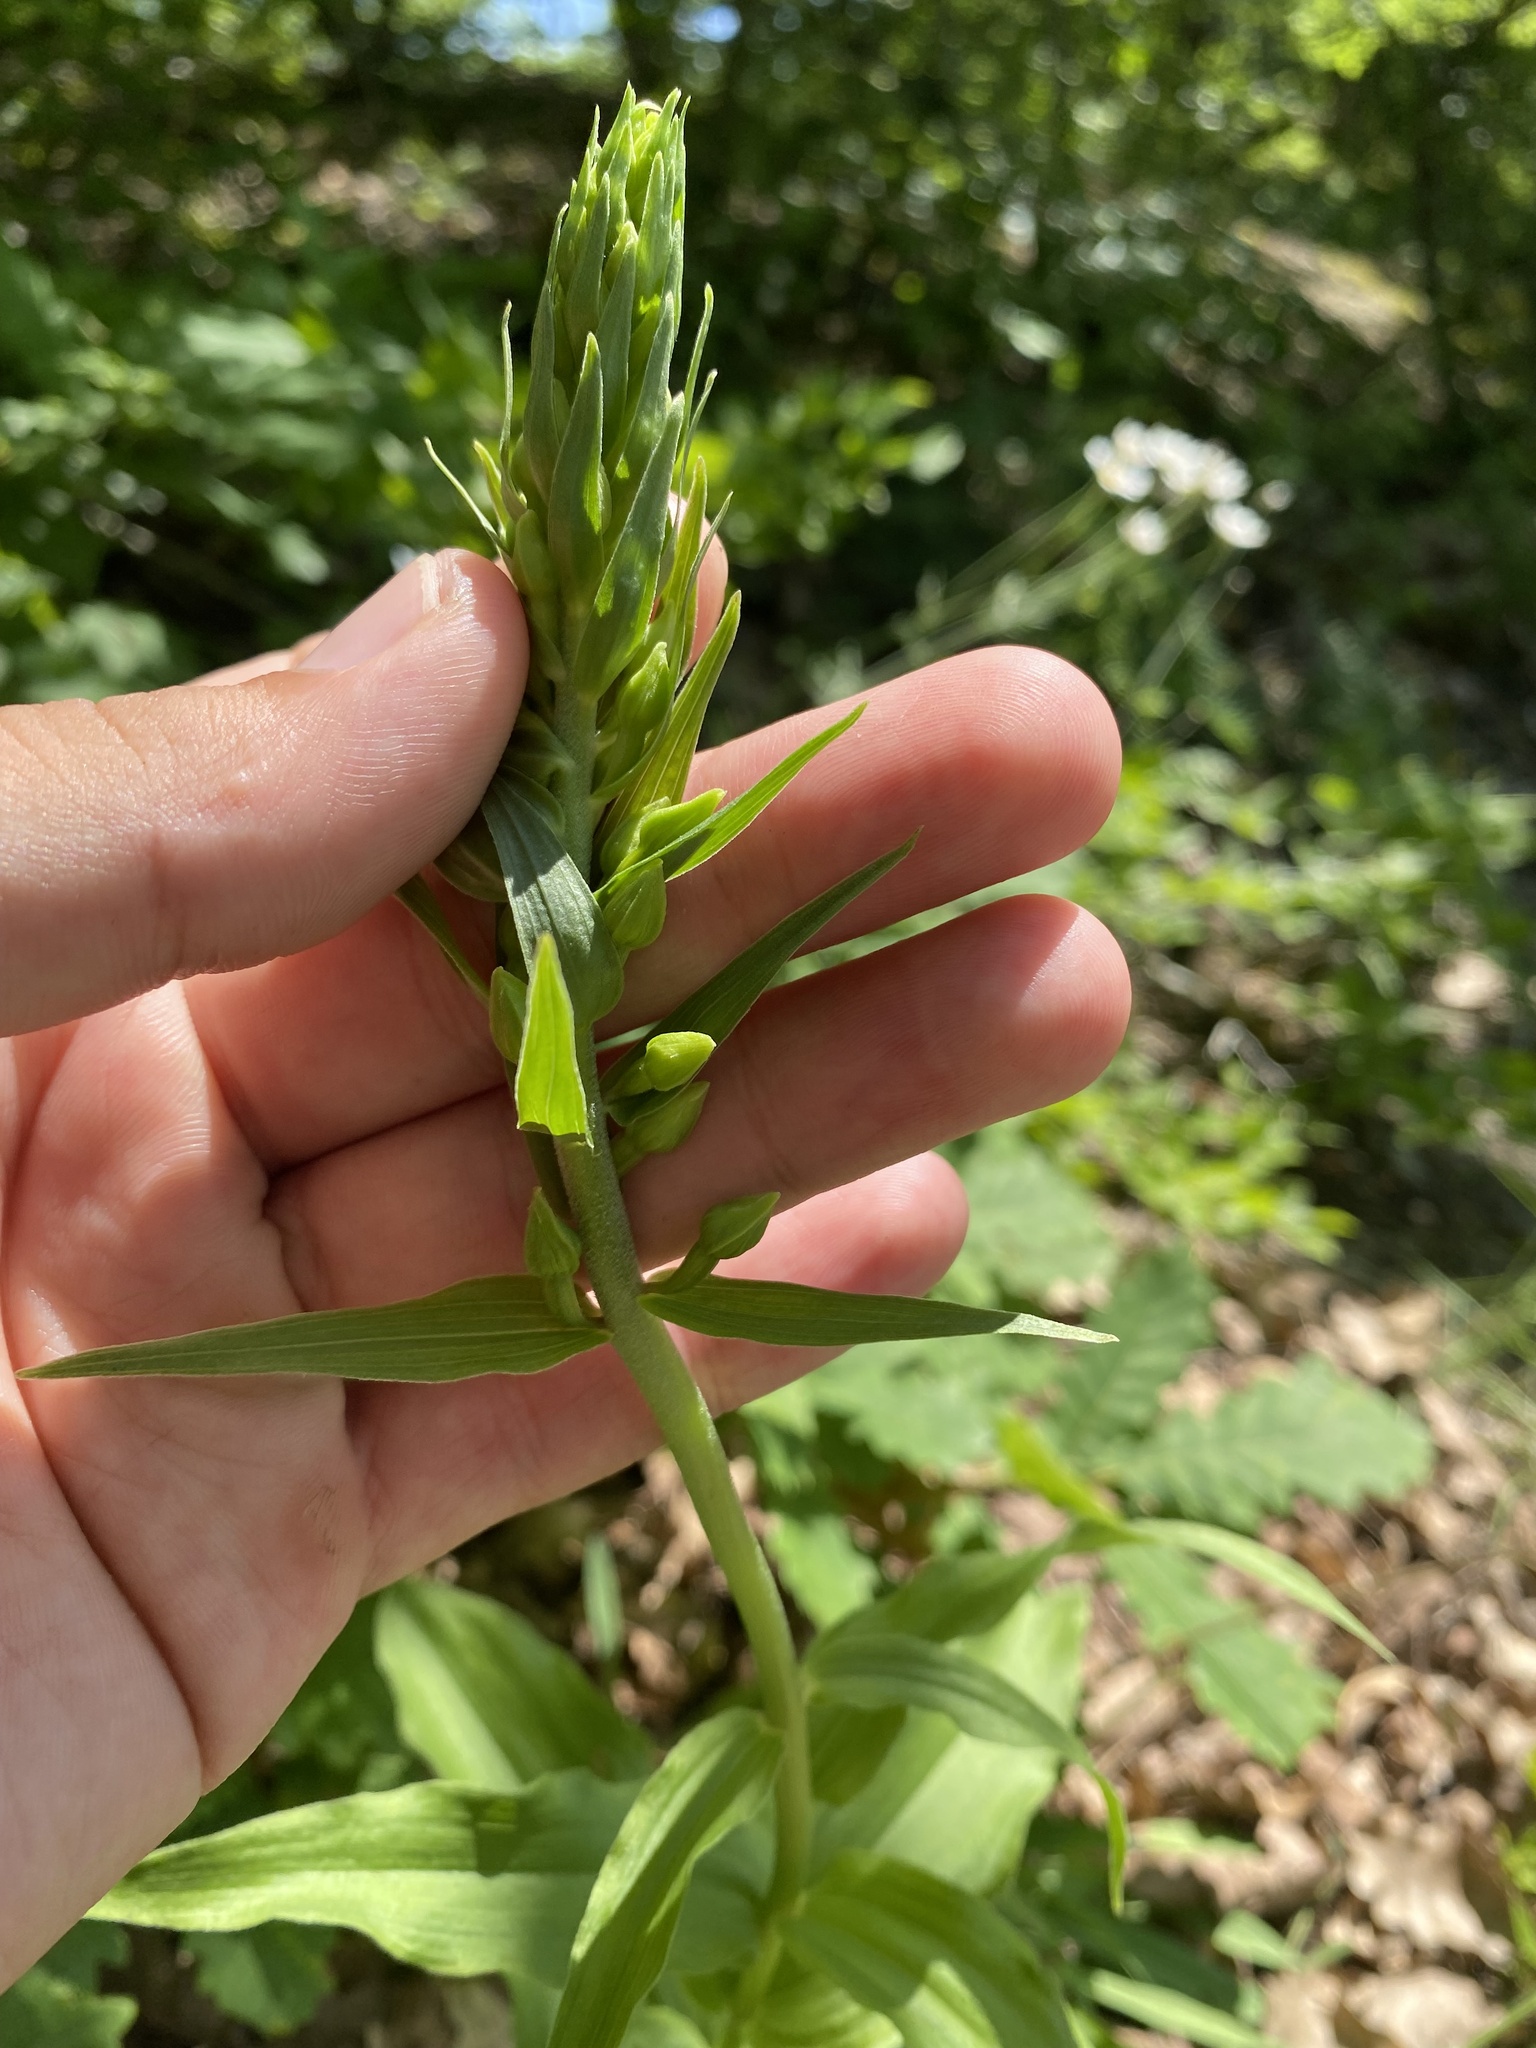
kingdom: Plantae
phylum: Tracheophyta
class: Liliopsida
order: Asparagales
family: Orchidaceae
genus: Epipactis
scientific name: Epipactis helleborine
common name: Broad-leaved helleborine
